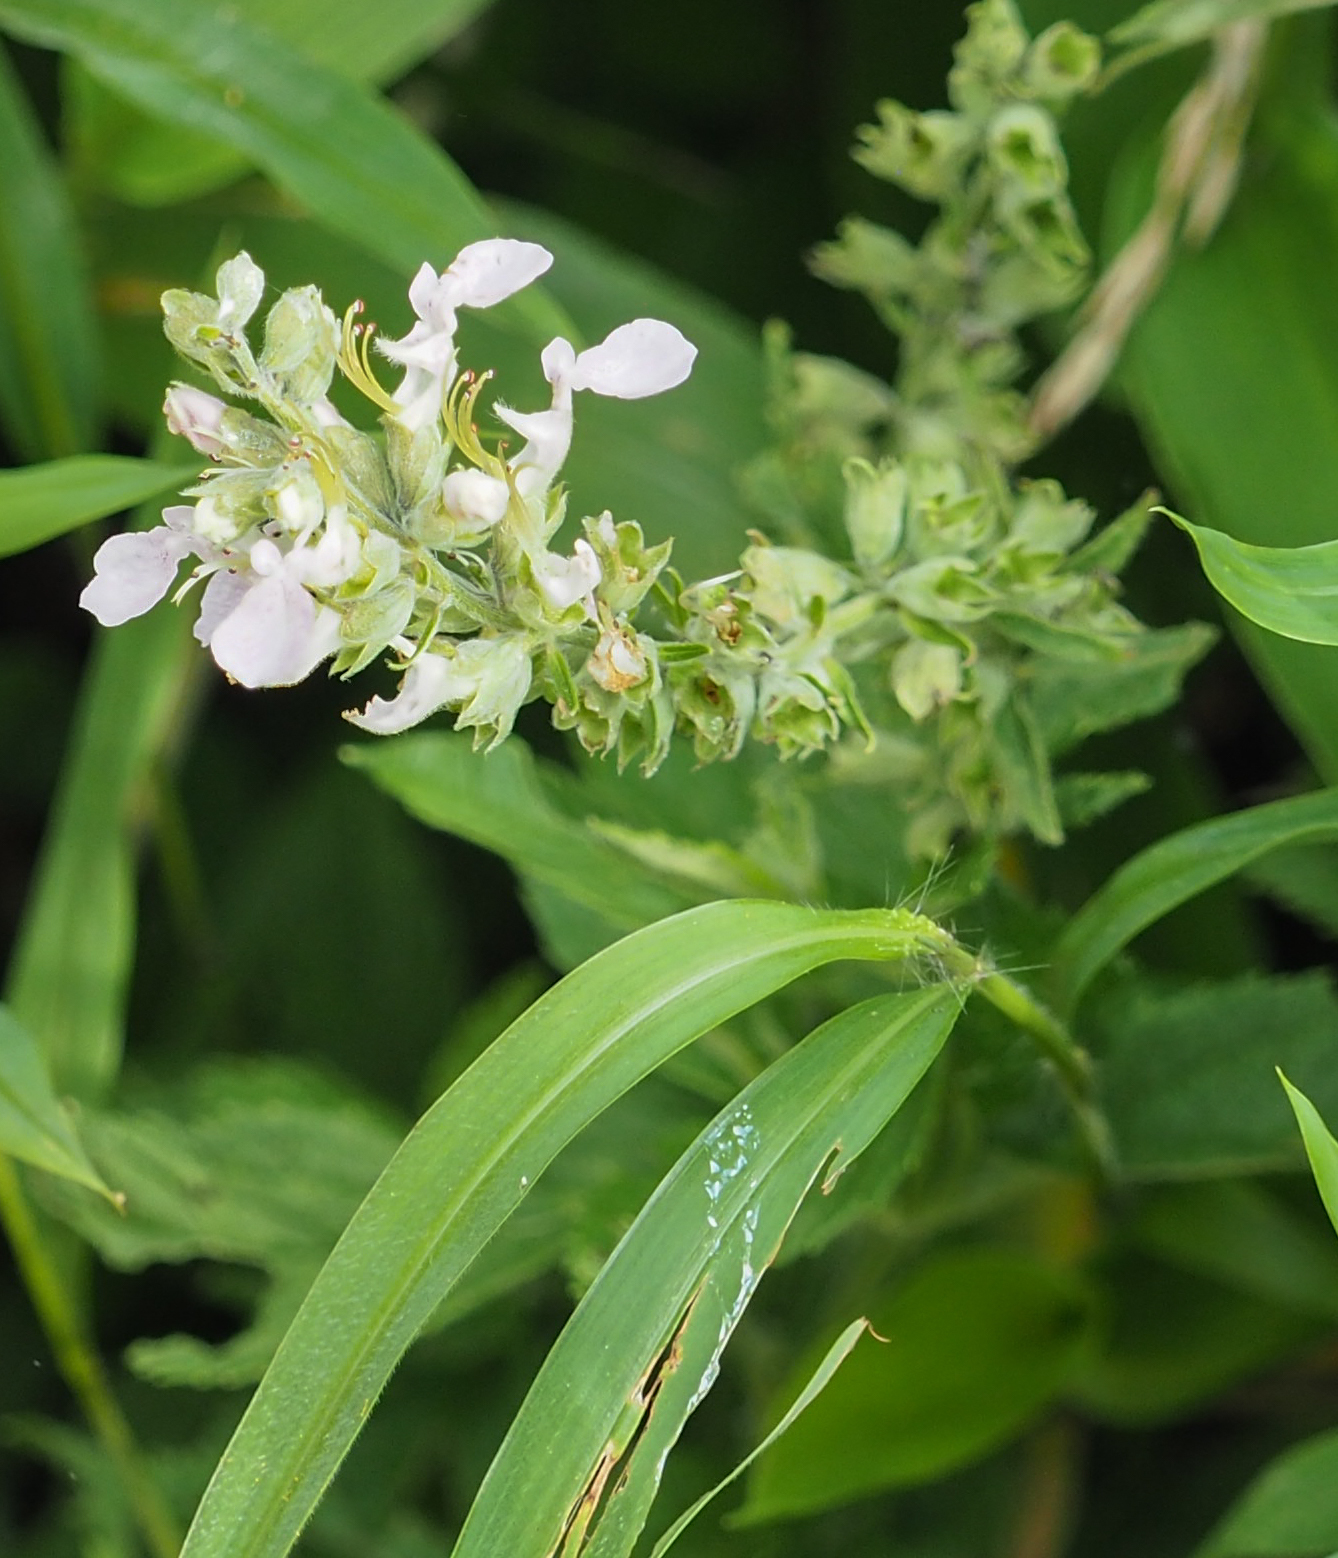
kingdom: Plantae
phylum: Tracheophyta
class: Magnoliopsida
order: Lamiales
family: Lamiaceae
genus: Teucrium
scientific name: Teucrium canadense
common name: American germander
